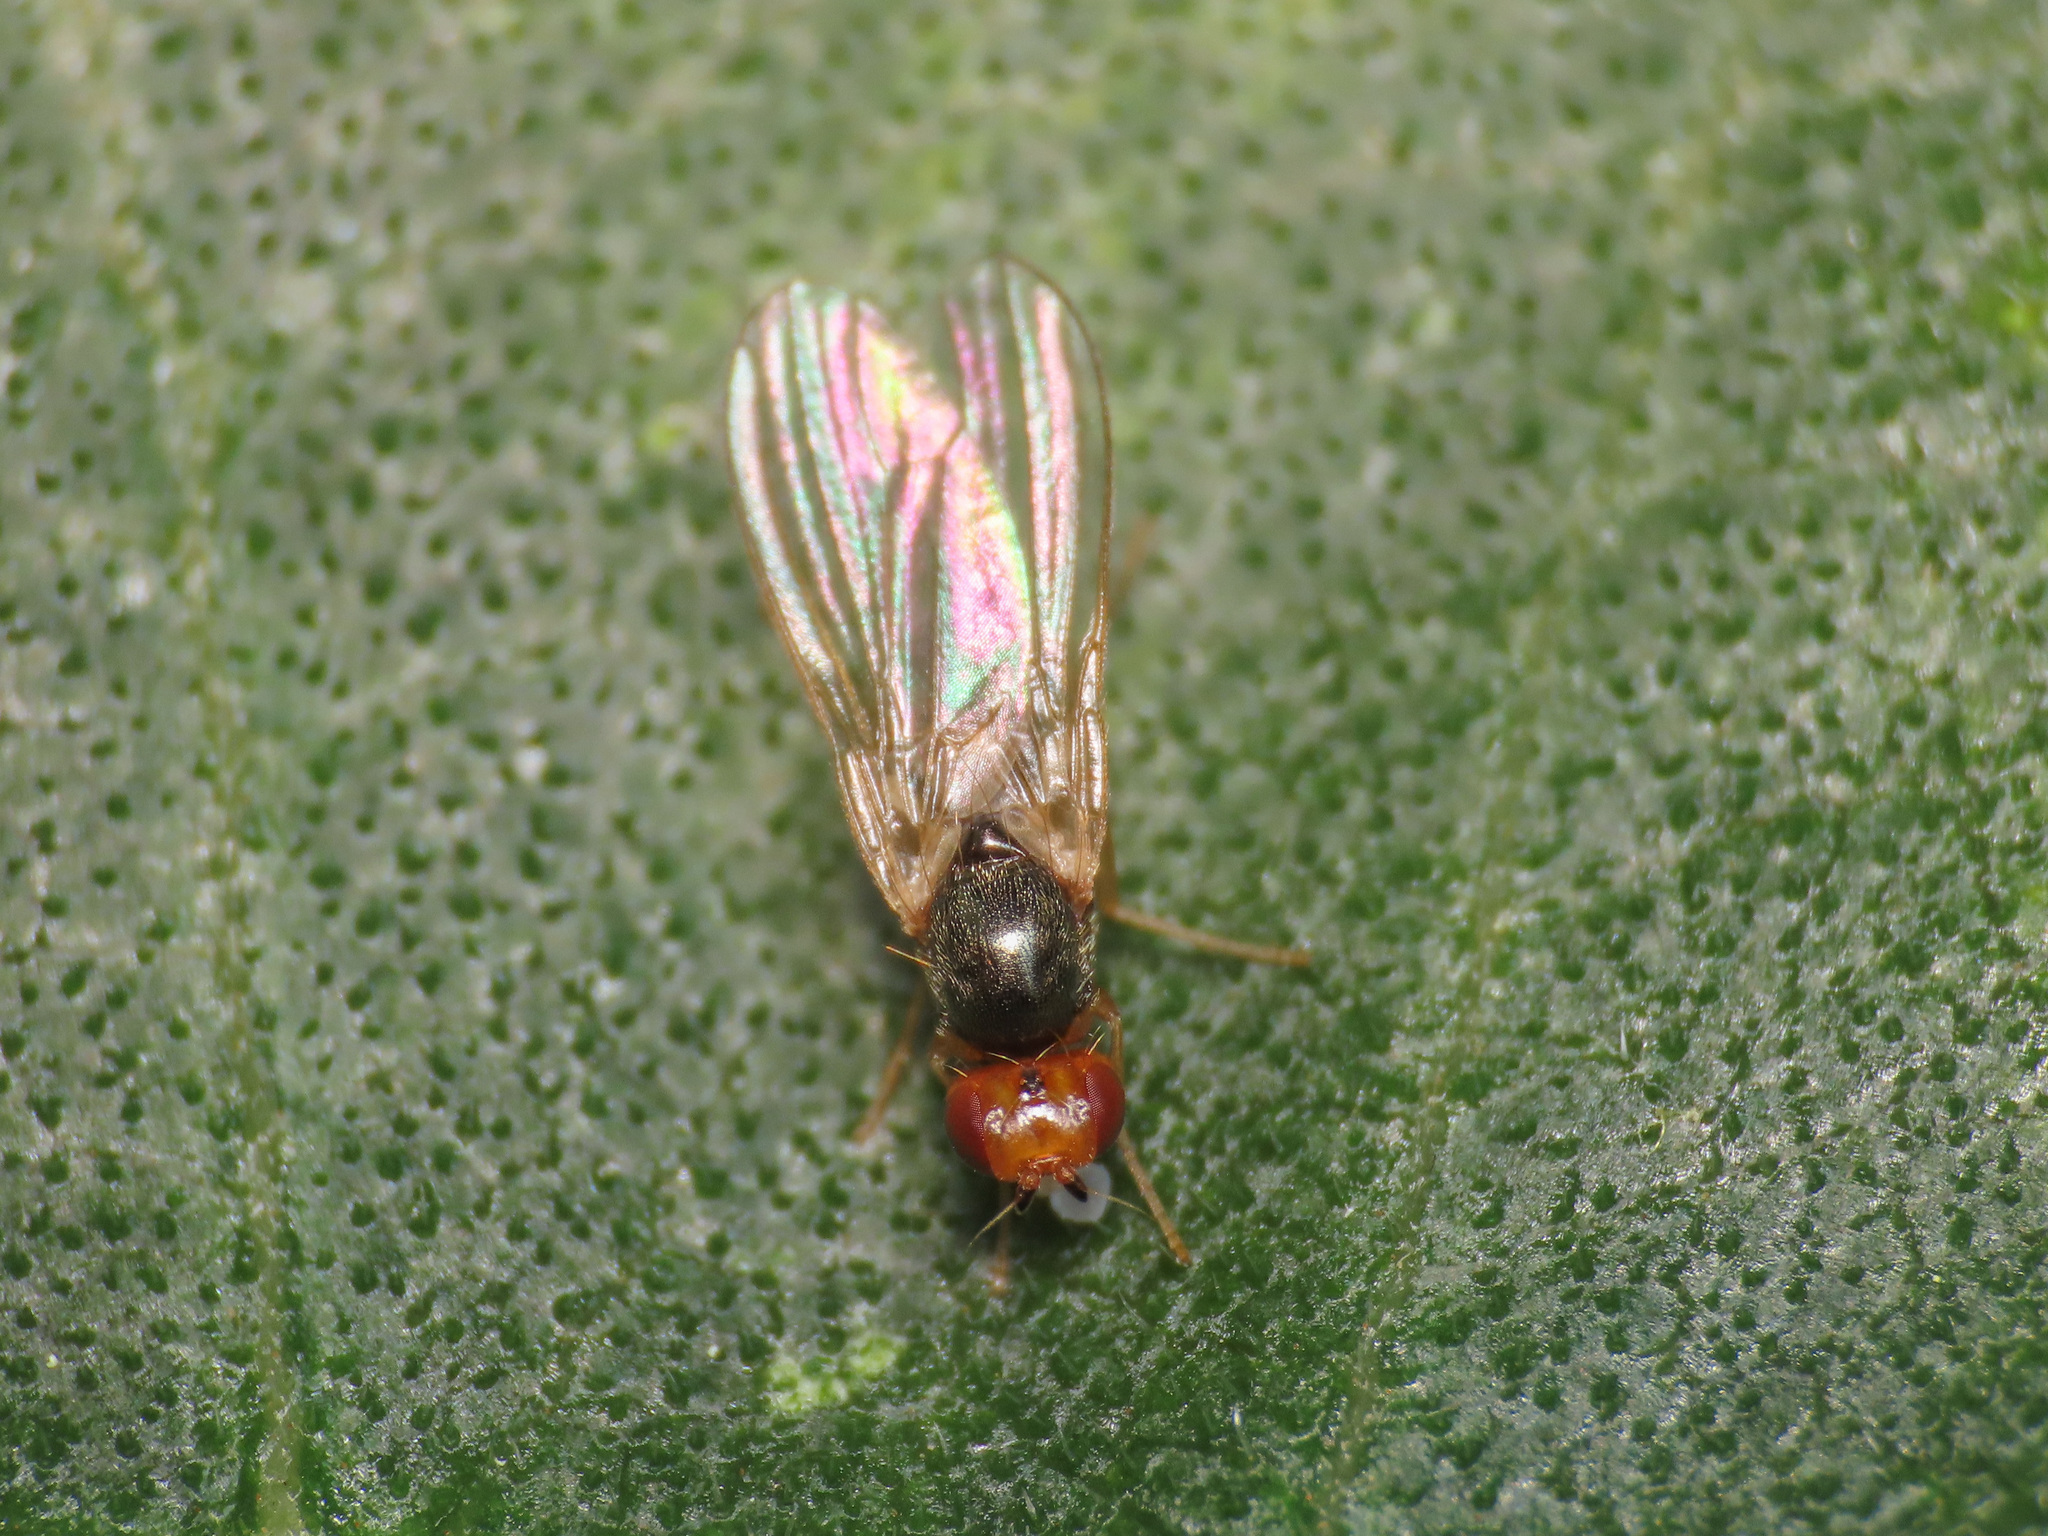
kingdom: Animalia
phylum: Arthropoda
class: Insecta
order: Diptera
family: Psilidae
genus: Chamaepsila
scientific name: Chamaepsila
